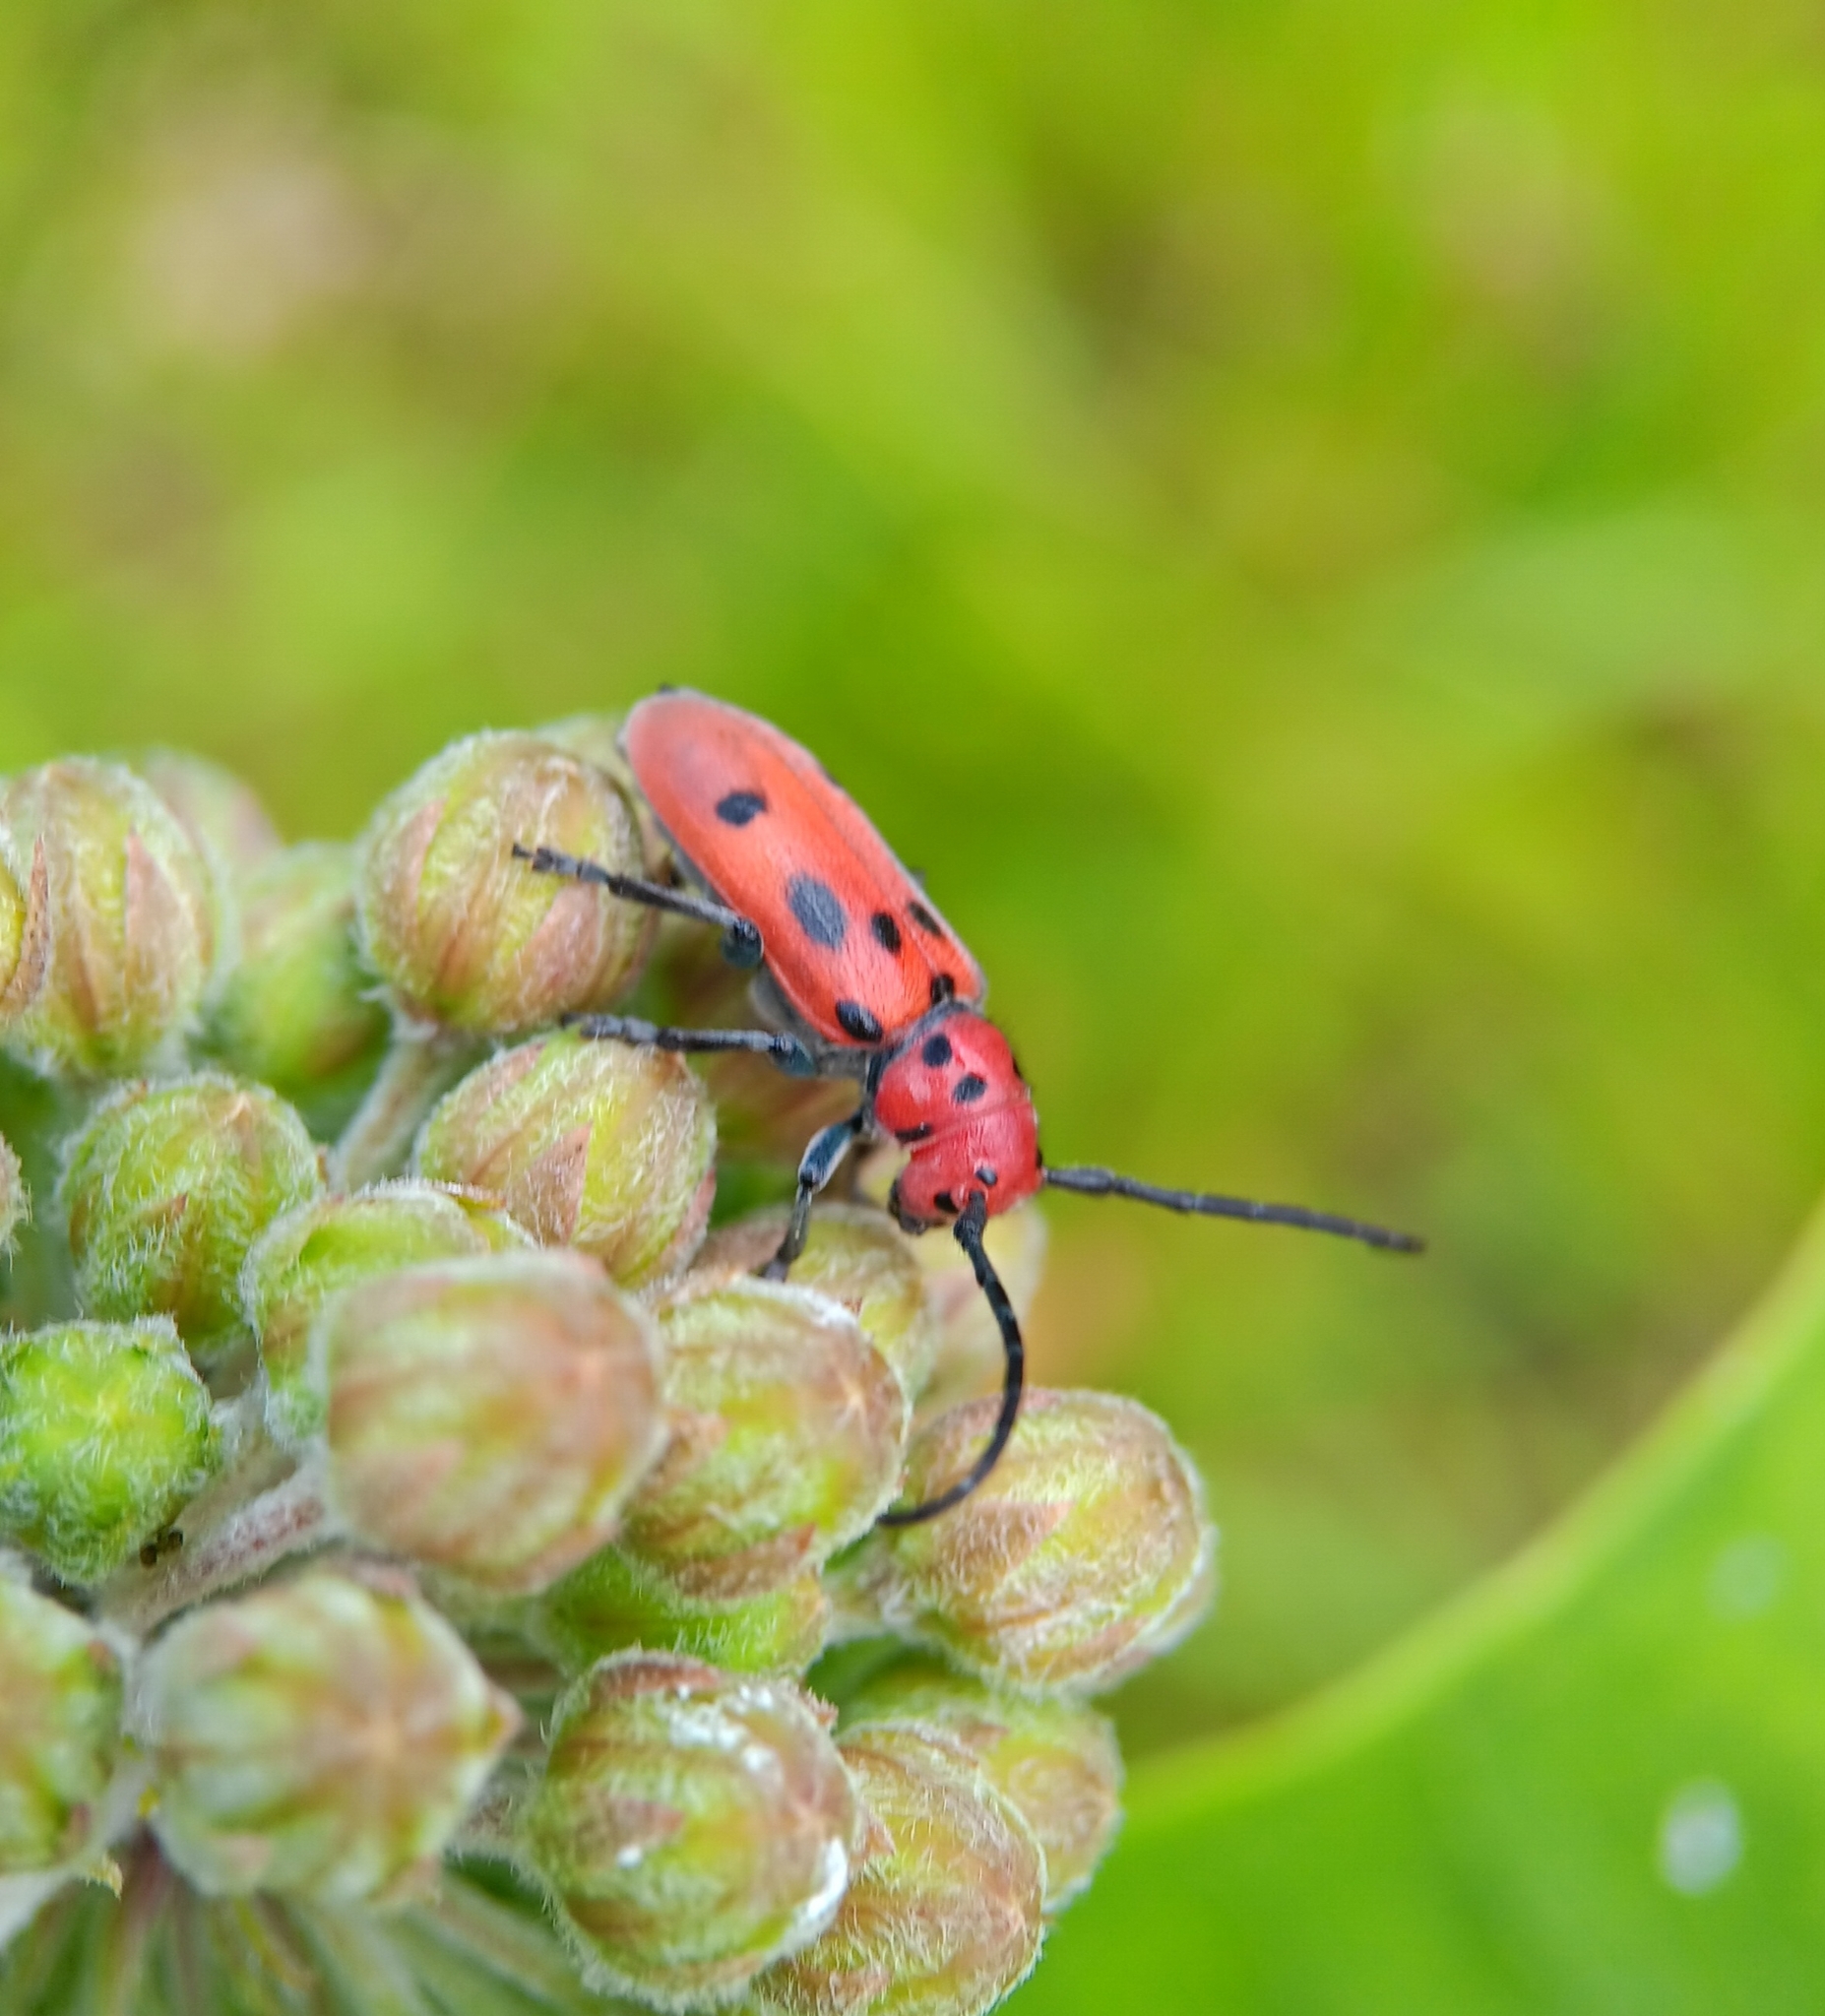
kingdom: Animalia
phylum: Arthropoda
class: Insecta
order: Coleoptera
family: Cerambycidae
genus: Tetraopes
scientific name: Tetraopes tetrophthalmus
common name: Red milkweed beetle
